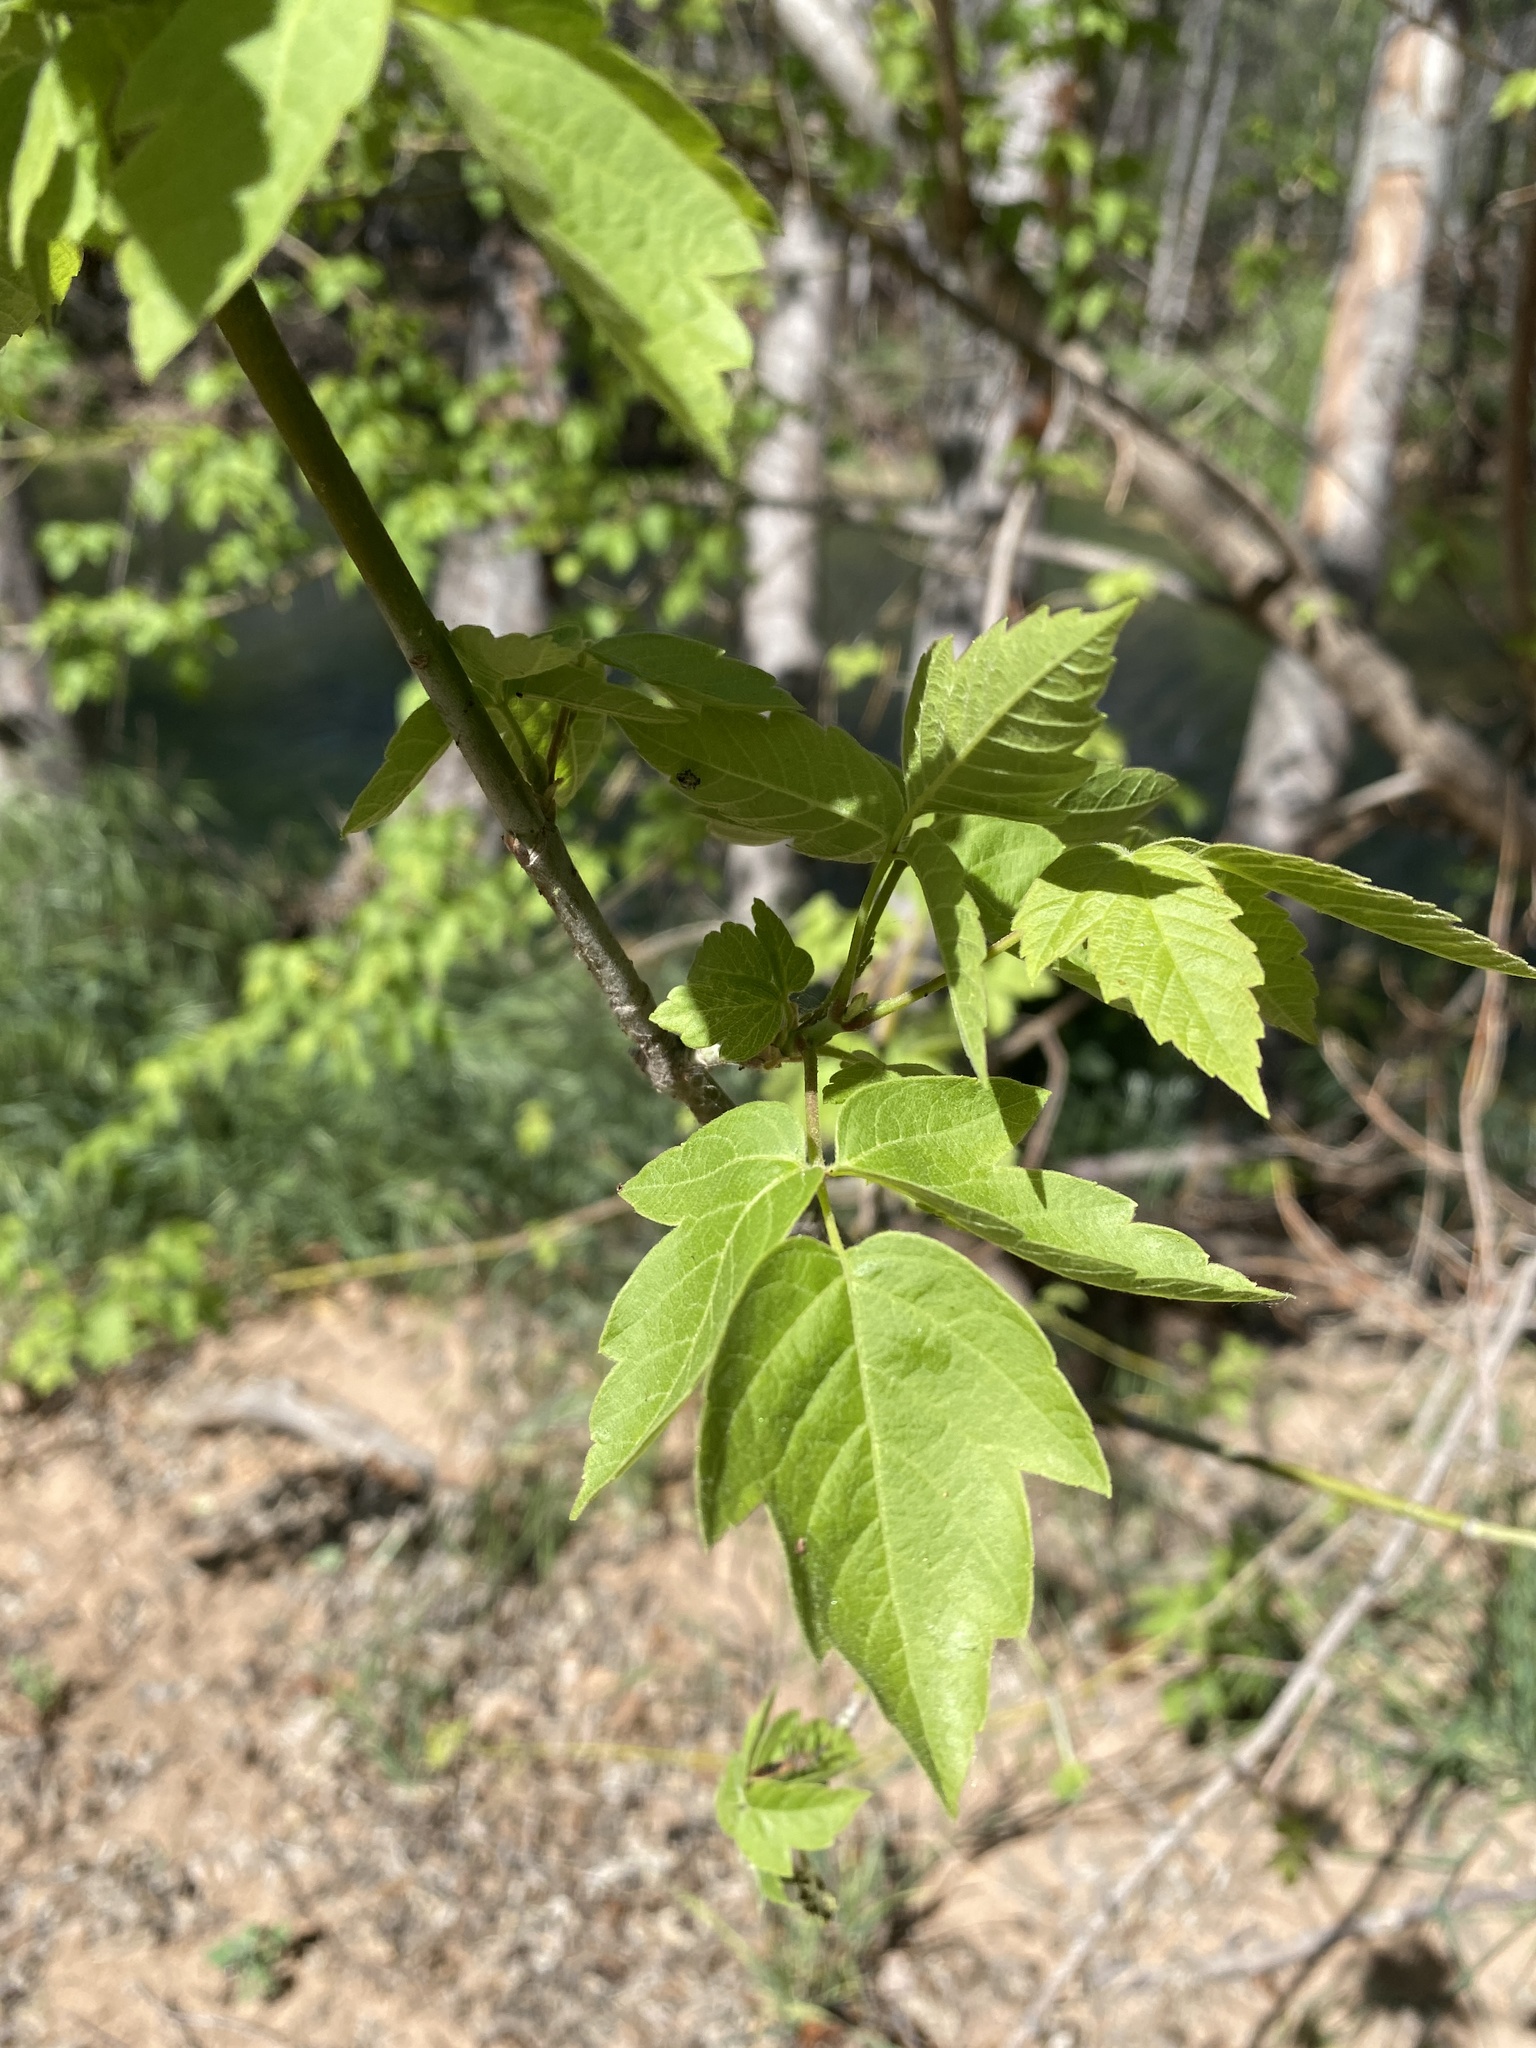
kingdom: Plantae
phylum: Tracheophyta
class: Magnoliopsida
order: Sapindales
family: Sapindaceae
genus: Acer
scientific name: Acer negundo
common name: Ashleaf maple
